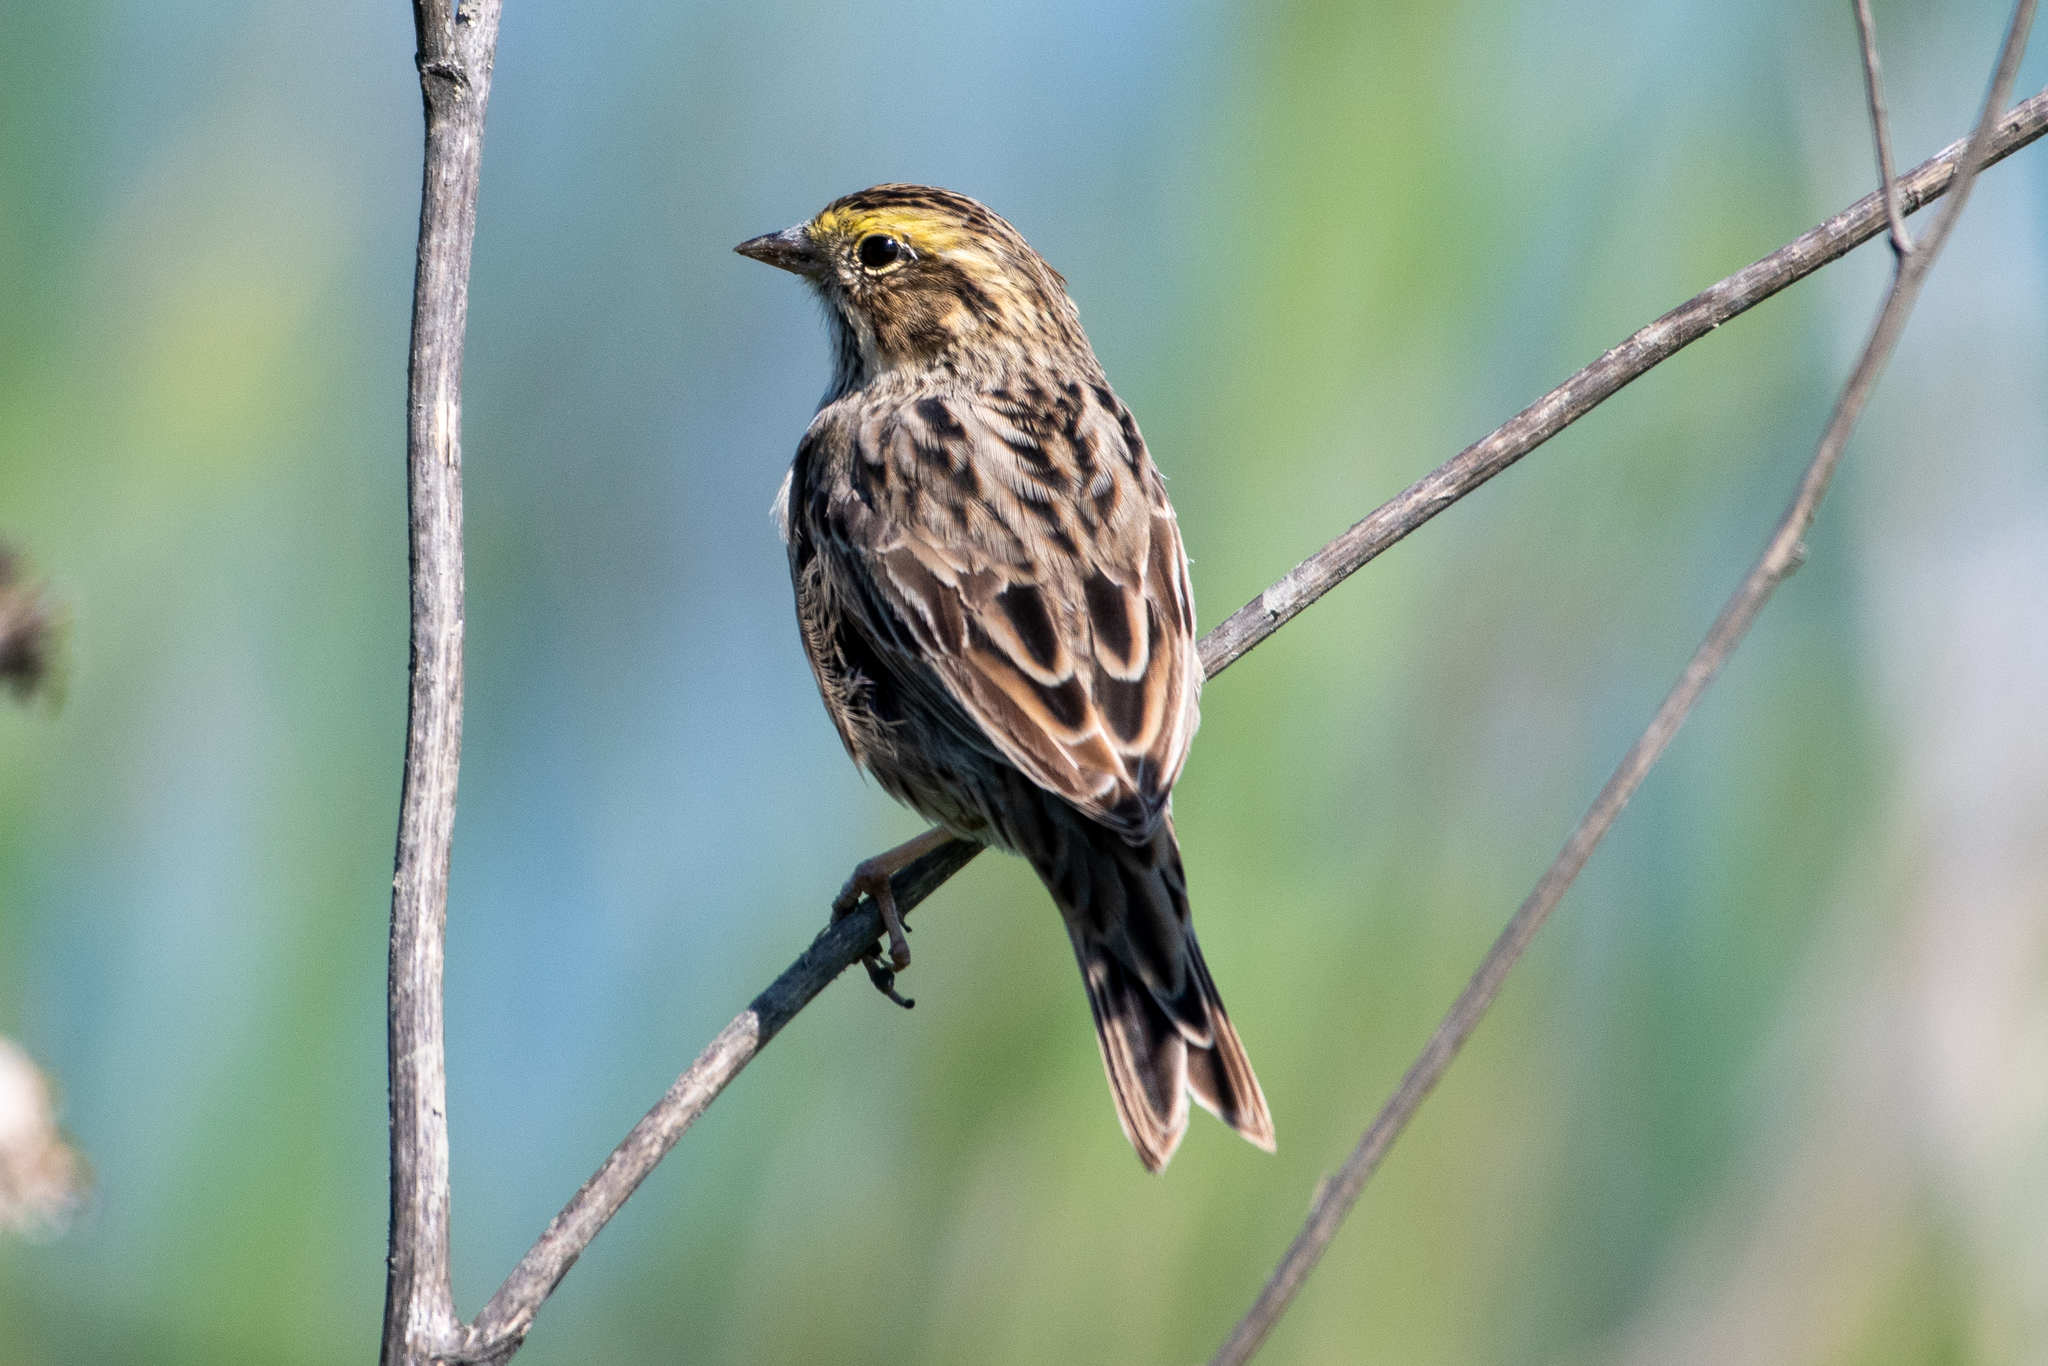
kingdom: Animalia
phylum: Chordata
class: Aves
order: Passeriformes
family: Passerellidae
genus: Passerculus
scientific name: Passerculus sandwichensis
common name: Savannah sparrow
